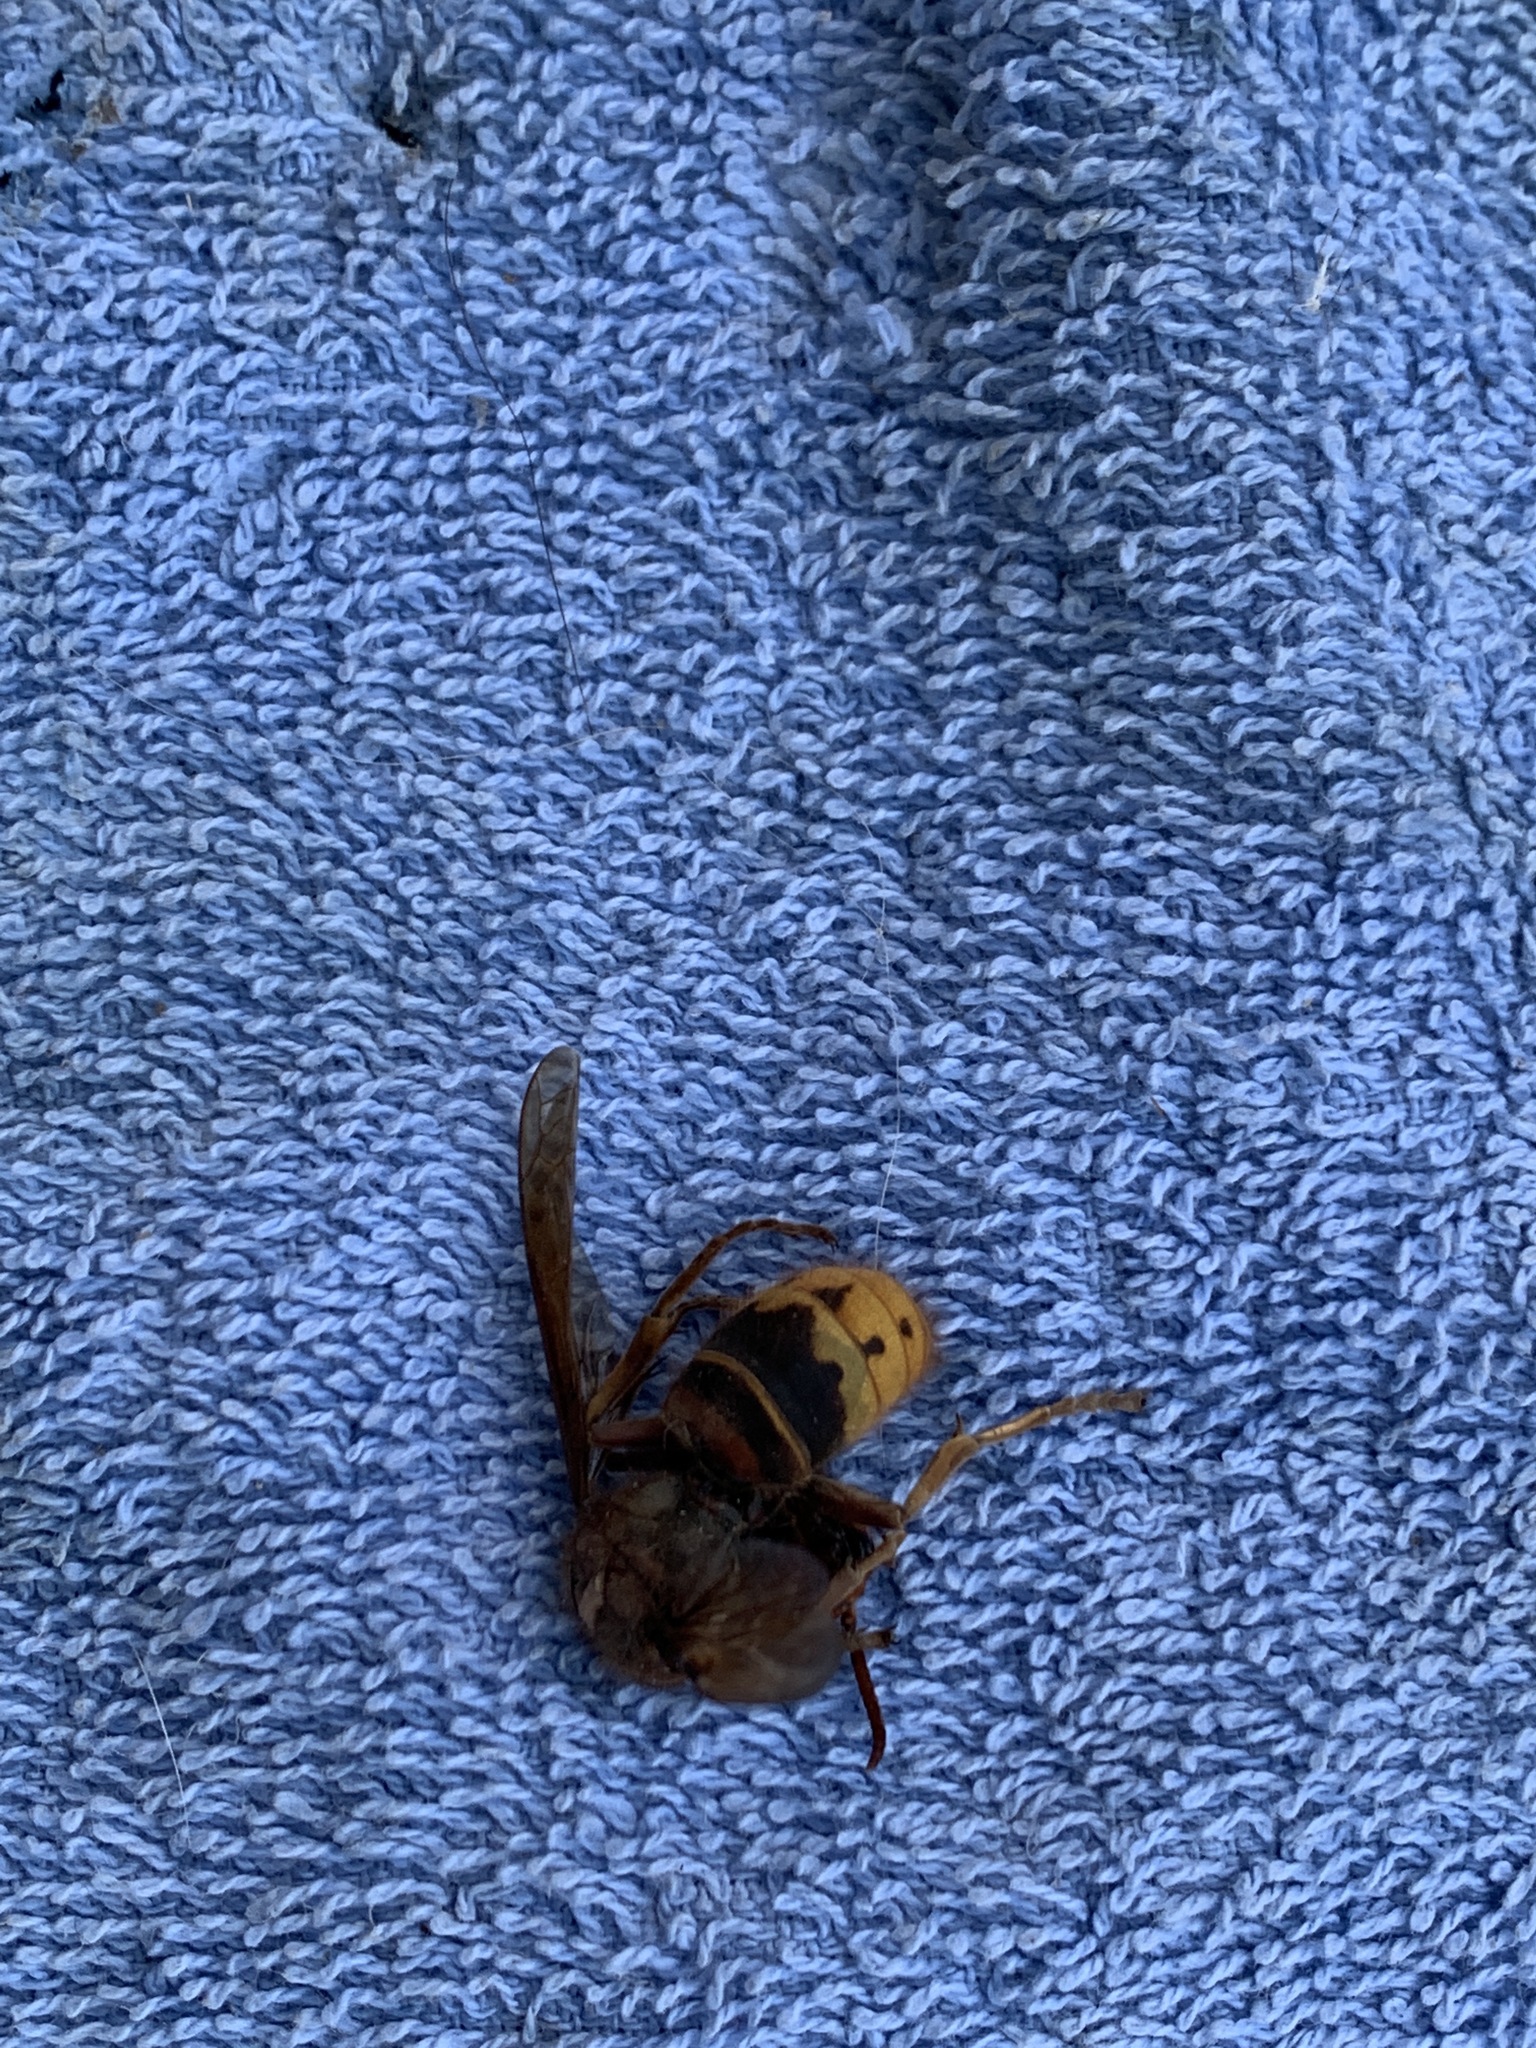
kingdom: Animalia
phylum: Arthropoda
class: Insecta
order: Hymenoptera
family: Vespidae
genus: Vespa
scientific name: Vespa crabro
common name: Hornet
